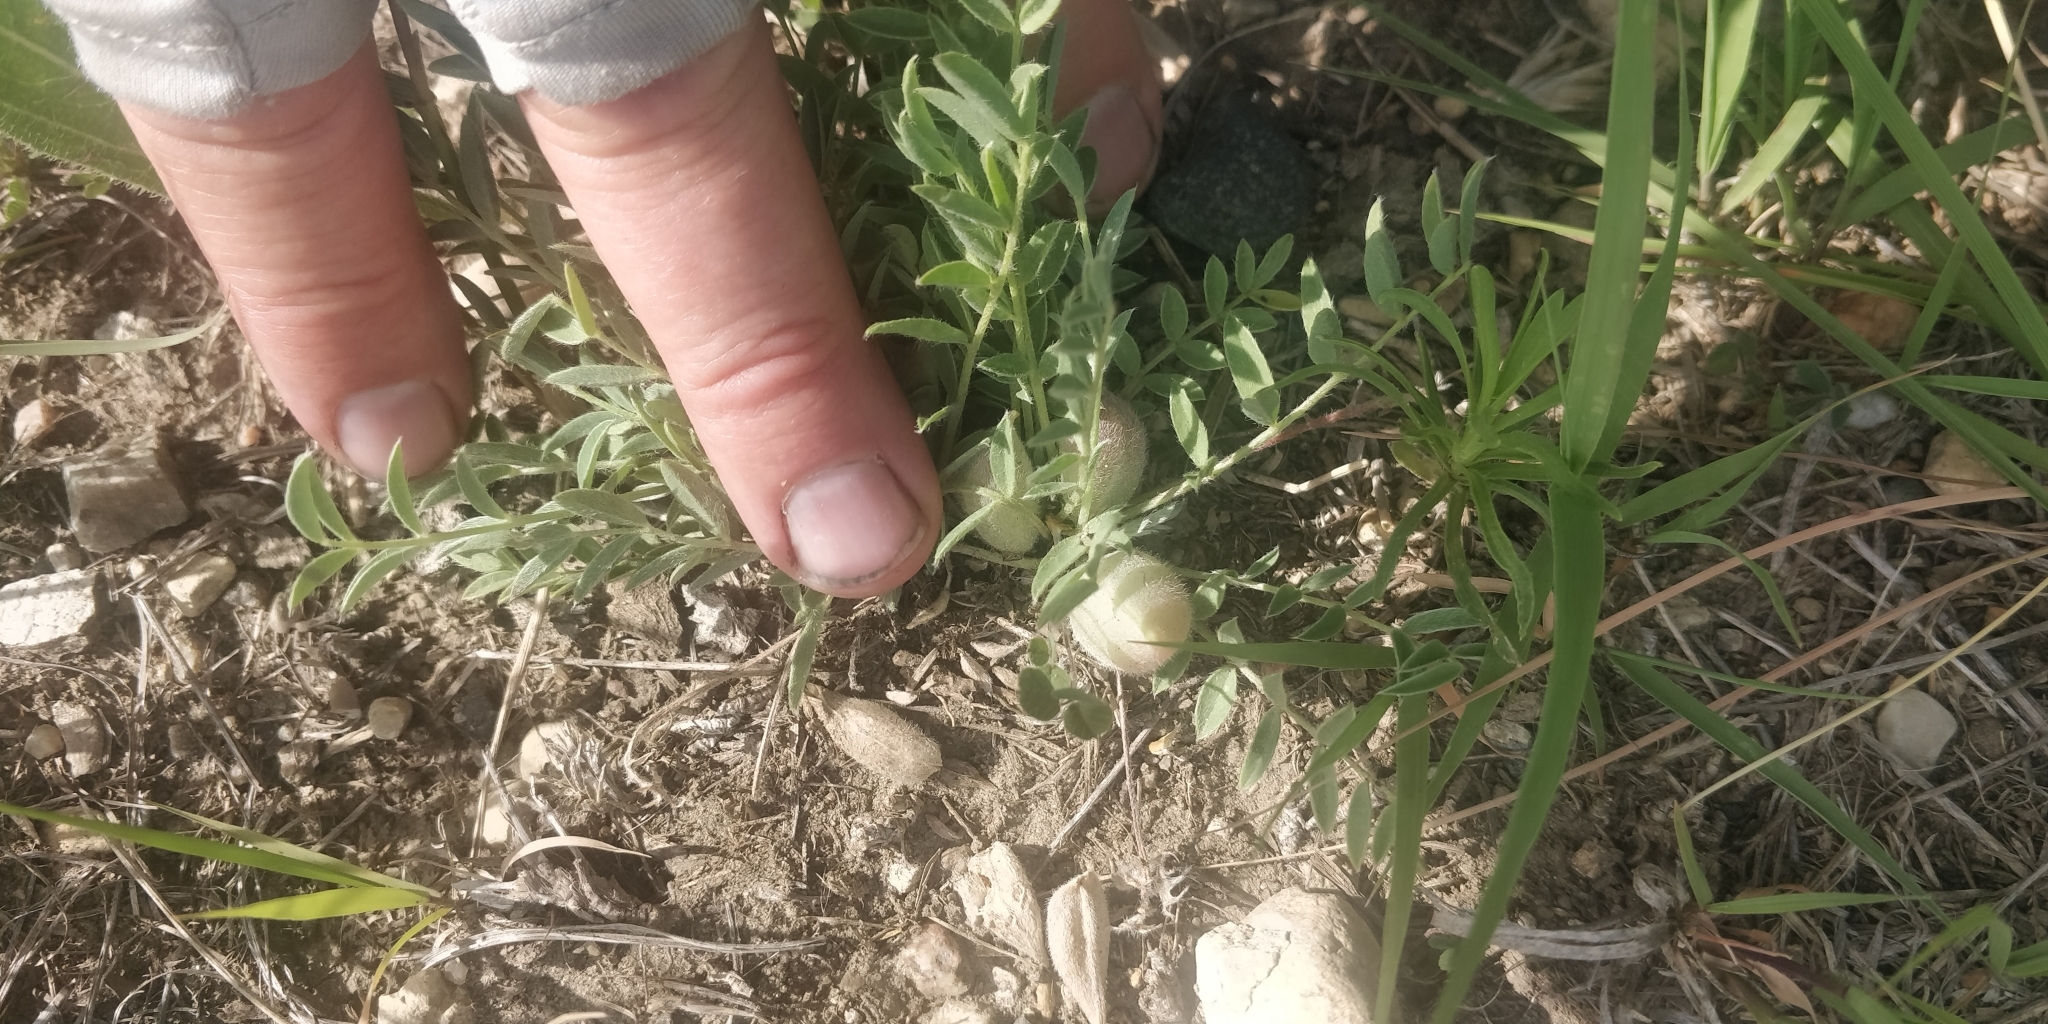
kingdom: Plantae
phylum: Tracheophyta
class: Magnoliopsida
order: Fabales
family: Fabaceae
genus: Astragalus
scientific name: Astragalus lotiflorus
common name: Lotus milk-vetch
